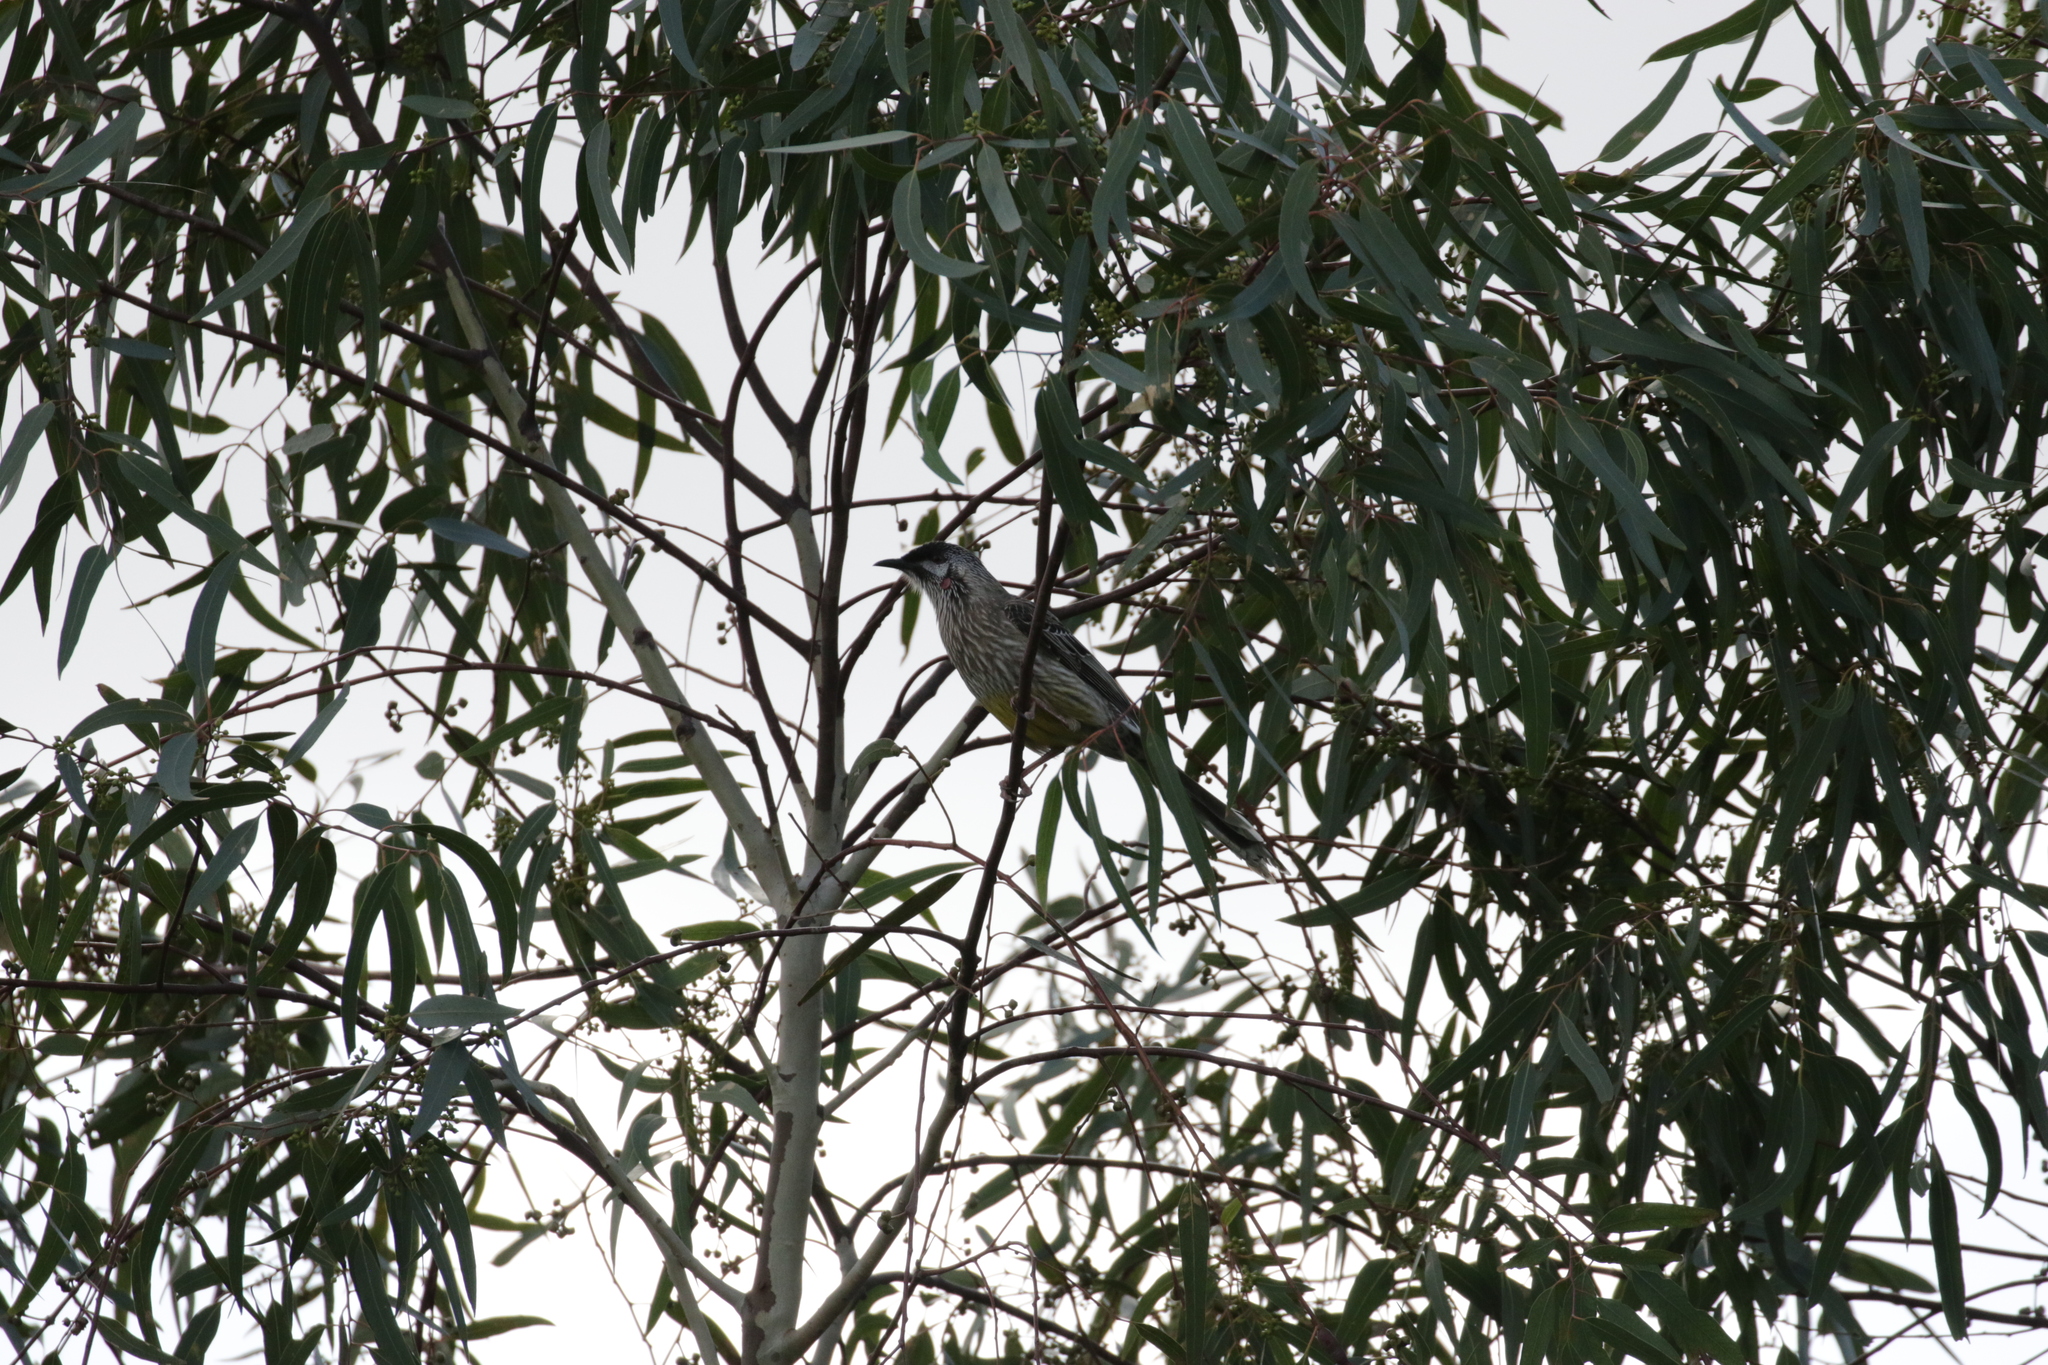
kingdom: Animalia
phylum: Chordata
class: Aves
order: Passeriformes
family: Meliphagidae
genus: Anthochaera
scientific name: Anthochaera carunculata
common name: Red wattlebird
